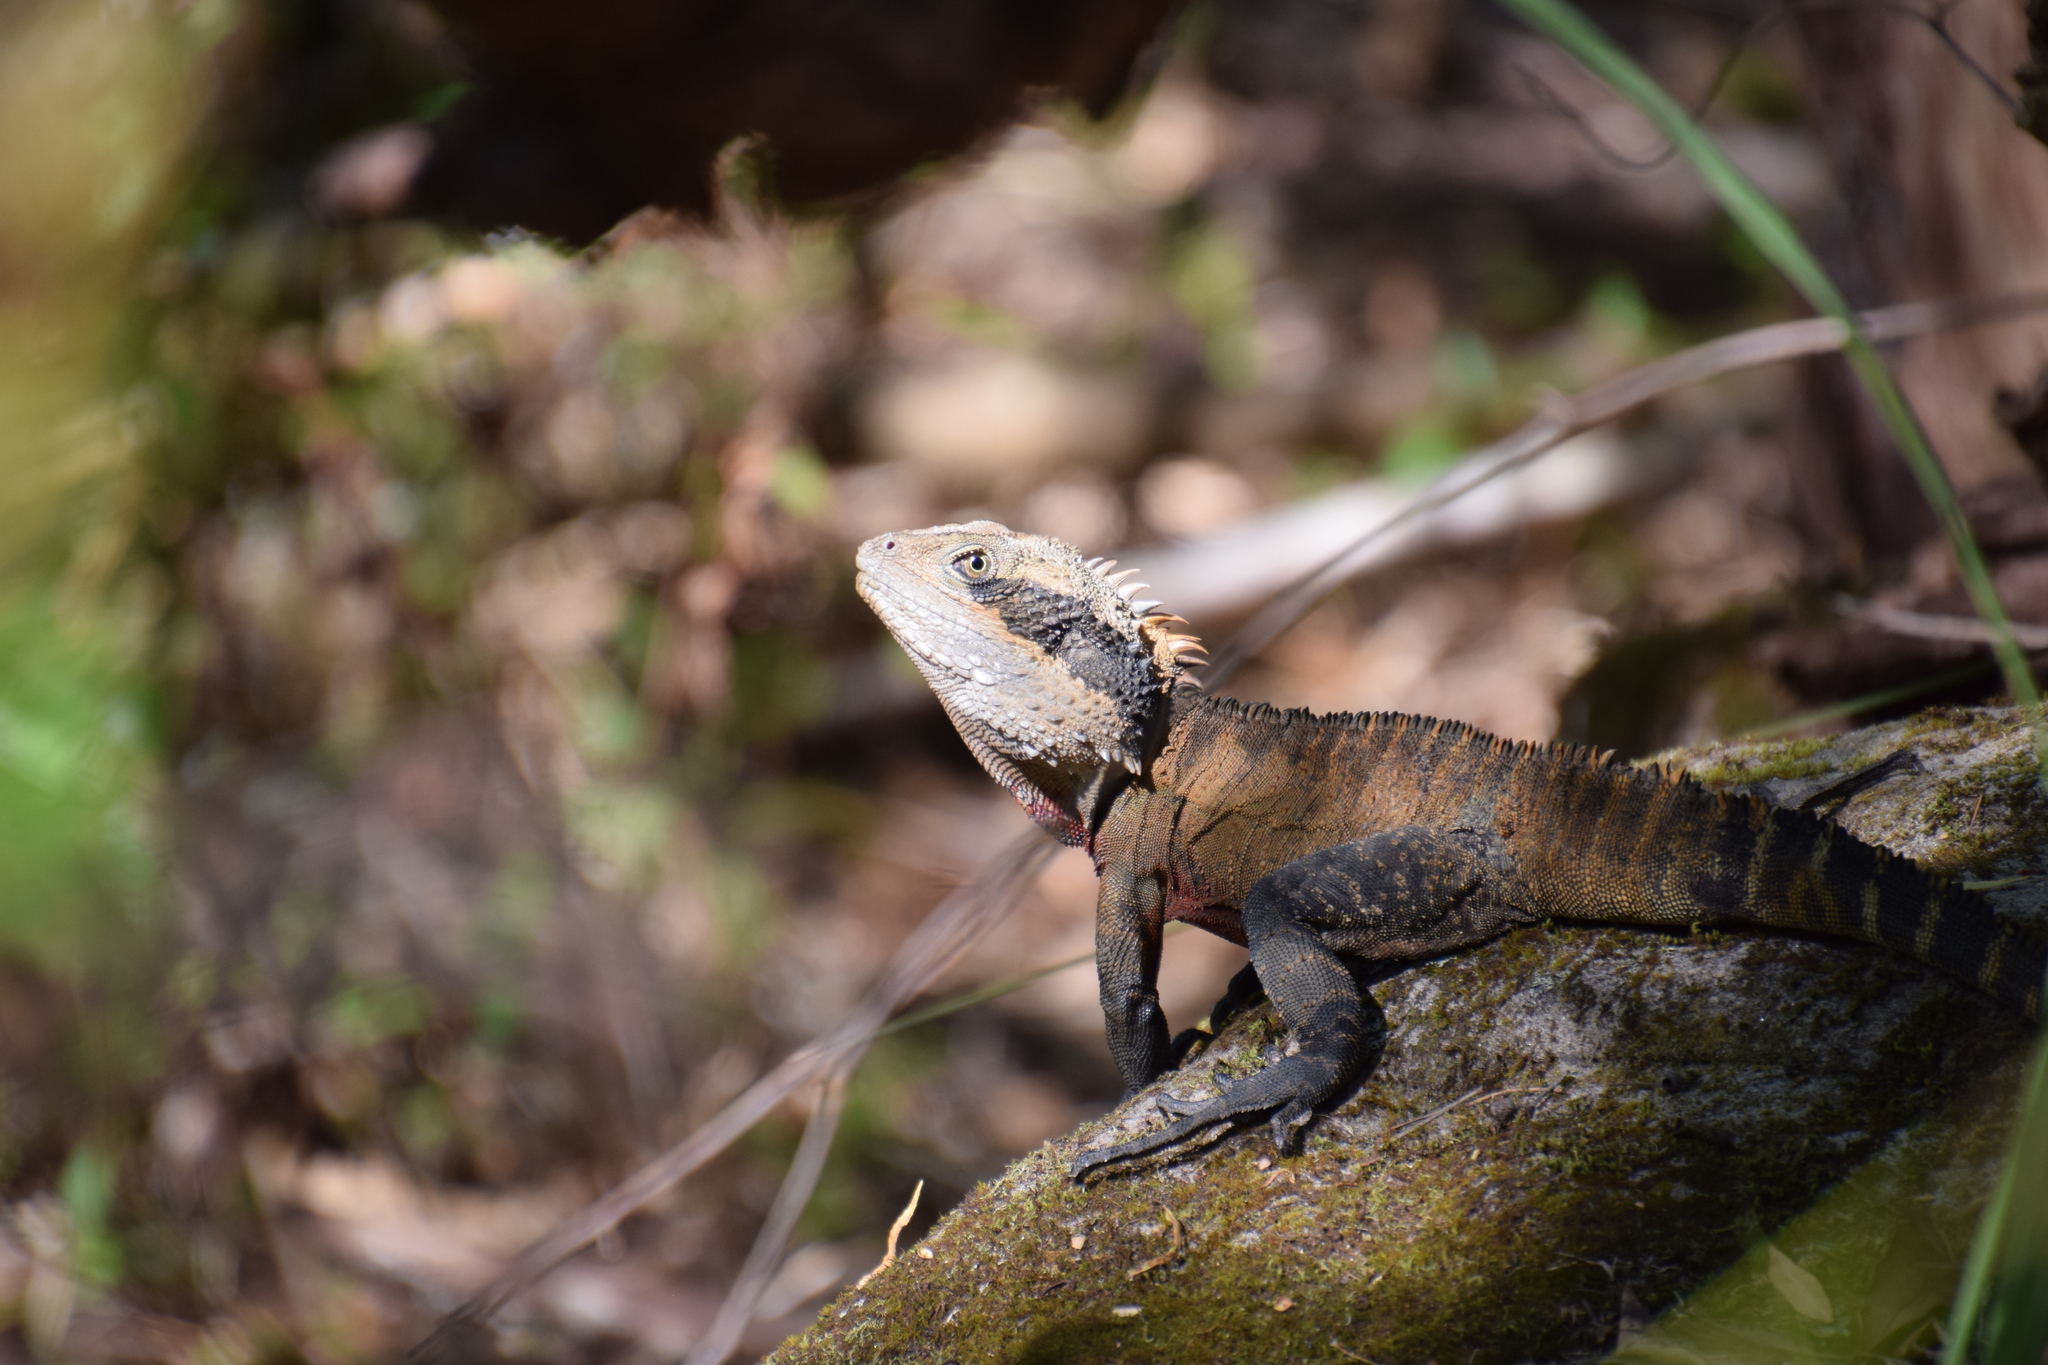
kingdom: Animalia
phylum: Chordata
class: Squamata
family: Agamidae
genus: Intellagama
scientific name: Intellagama lesueurii
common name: Eastern water dragon
